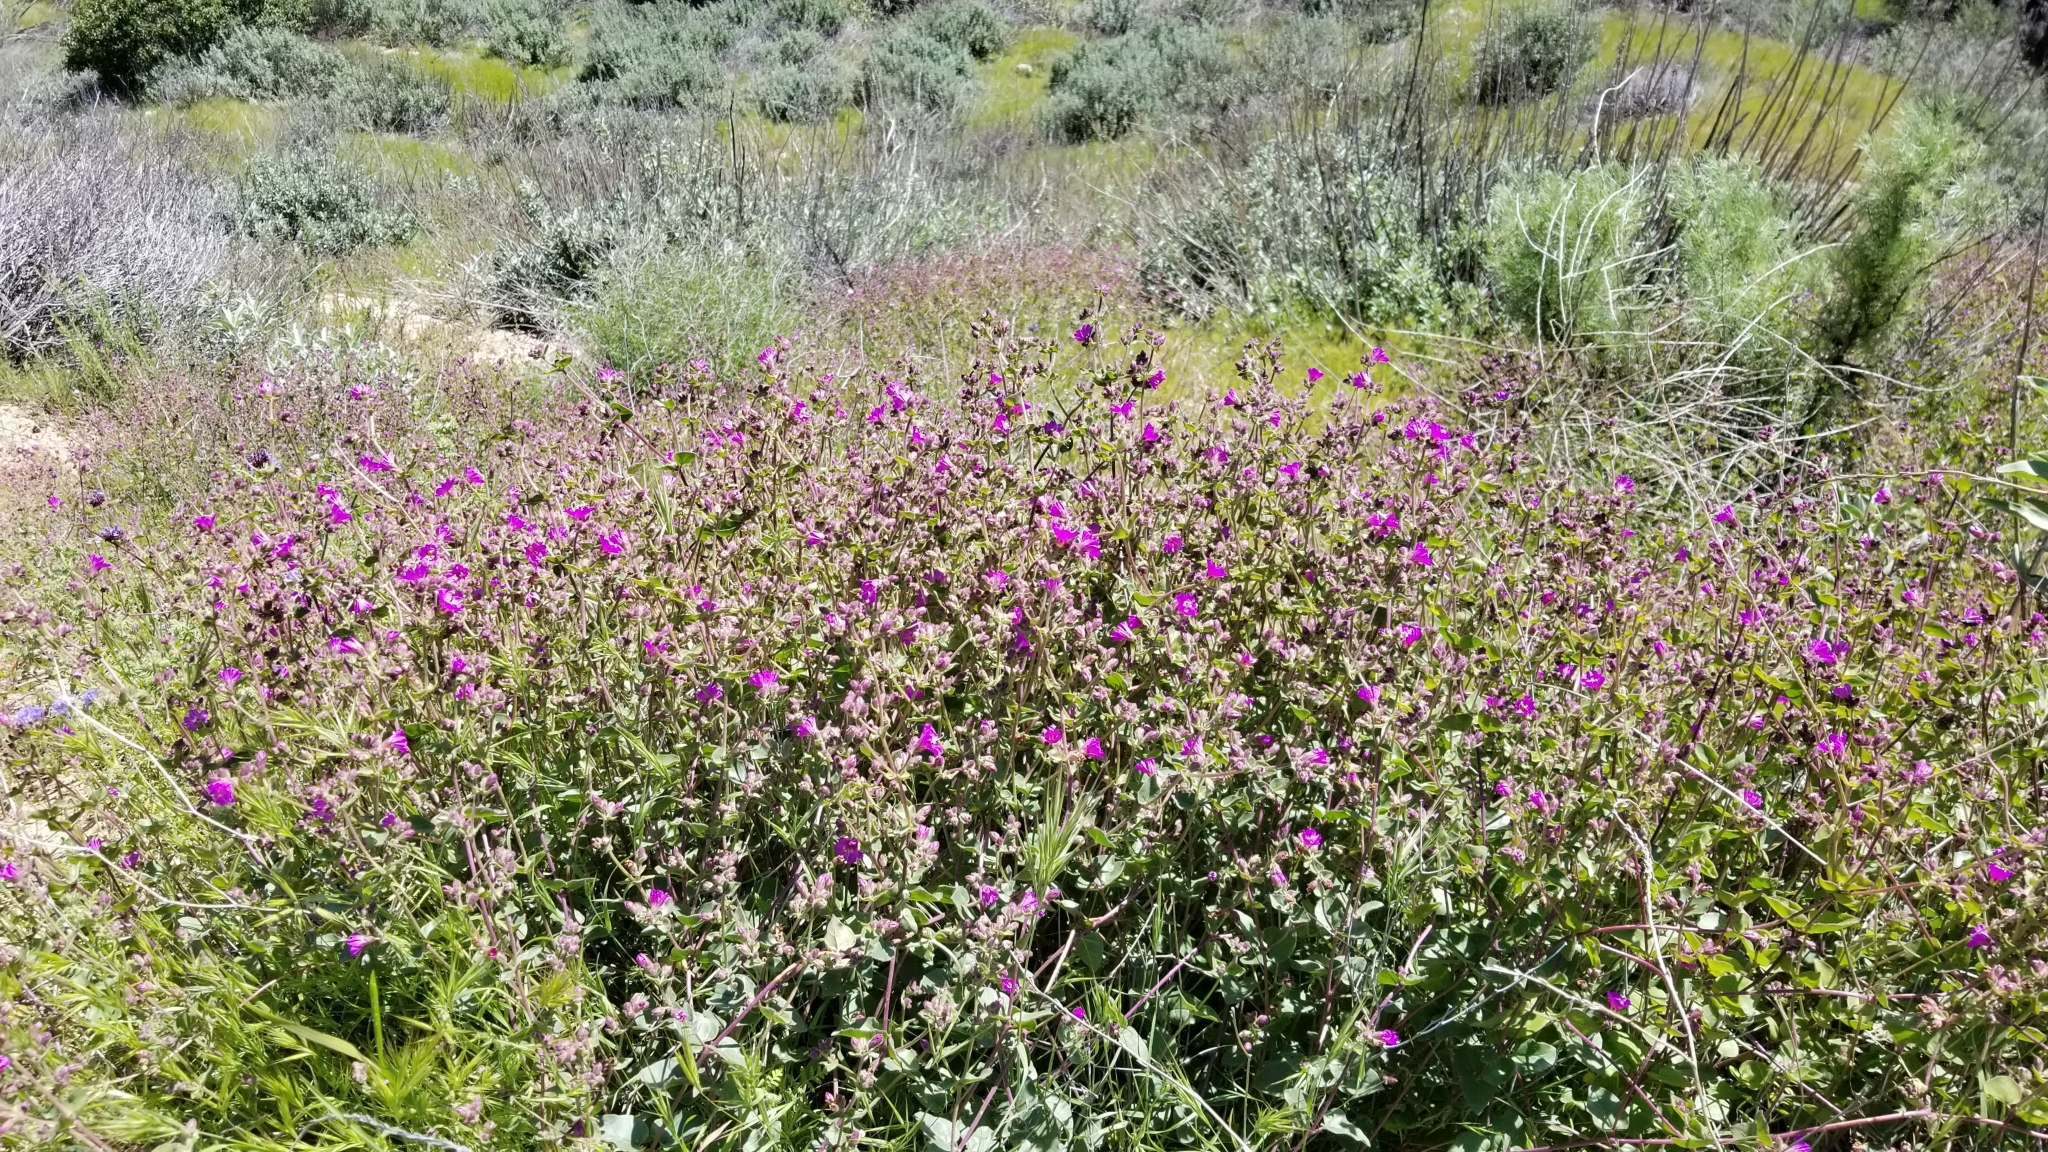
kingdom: Plantae
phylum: Tracheophyta
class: Magnoliopsida
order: Caryophyllales
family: Nyctaginaceae
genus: Mirabilis
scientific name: Mirabilis laevis
